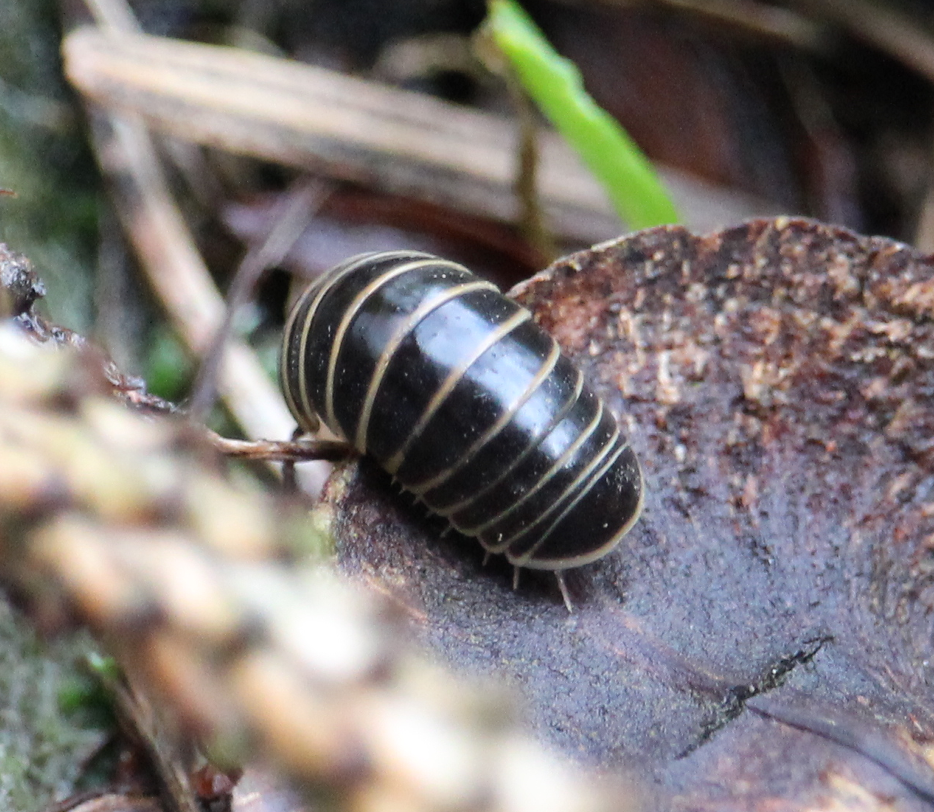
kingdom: Animalia
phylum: Arthropoda
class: Diplopoda
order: Glomerida
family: Glomeridae
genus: Glomeris
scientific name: Glomeris marginata
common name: Bordered pill millipede
